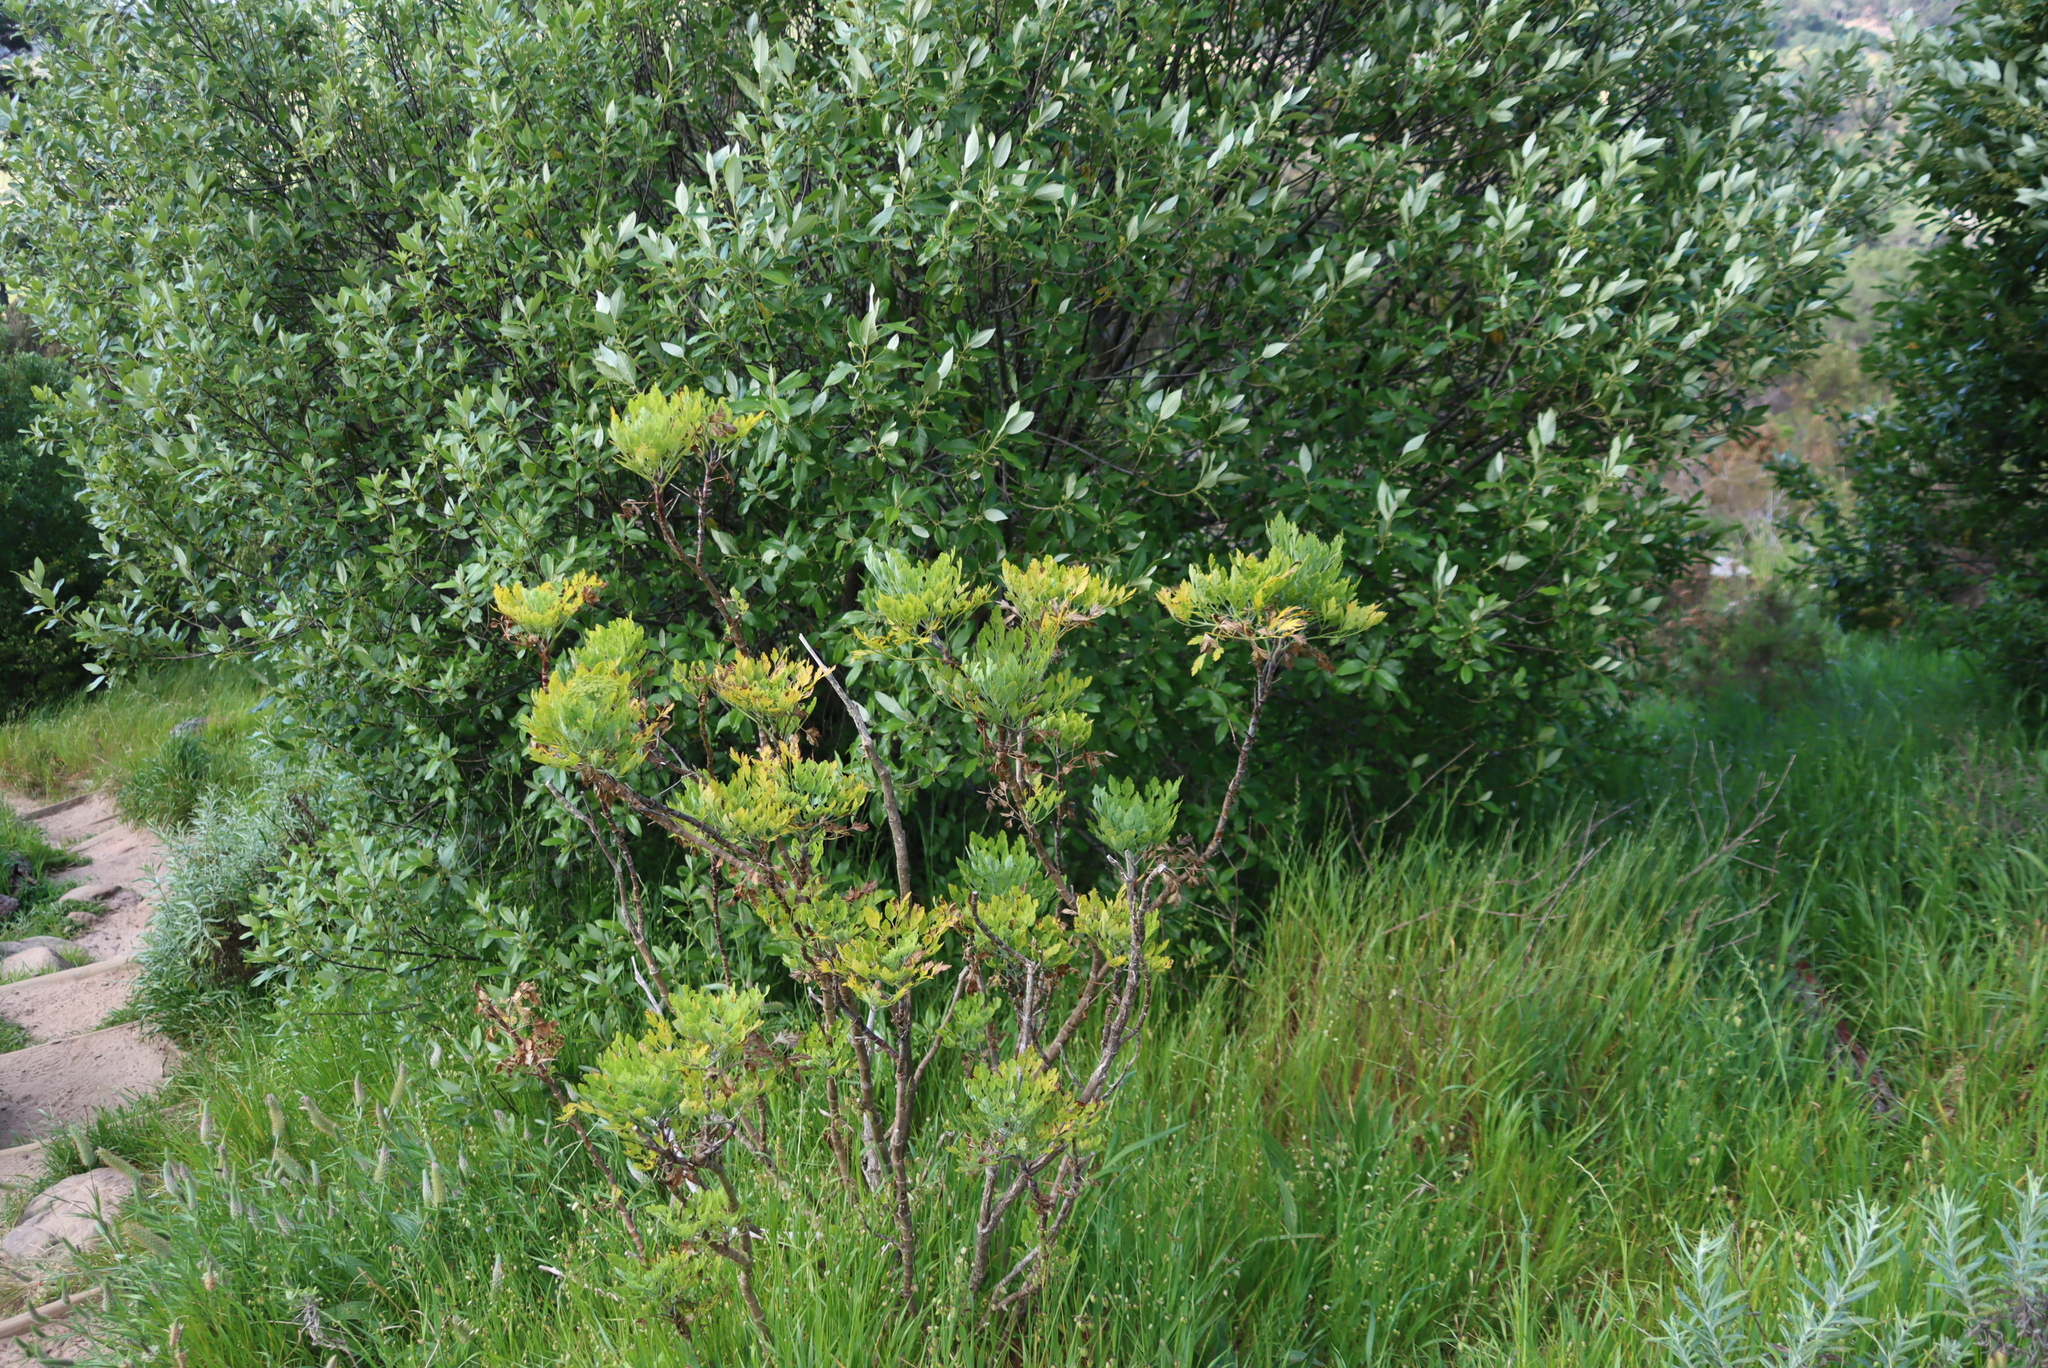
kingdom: Plantae
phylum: Tracheophyta
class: Magnoliopsida
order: Apiales
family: Apiaceae
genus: Notobubon
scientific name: Notobubon galbanum
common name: Blisterbush
